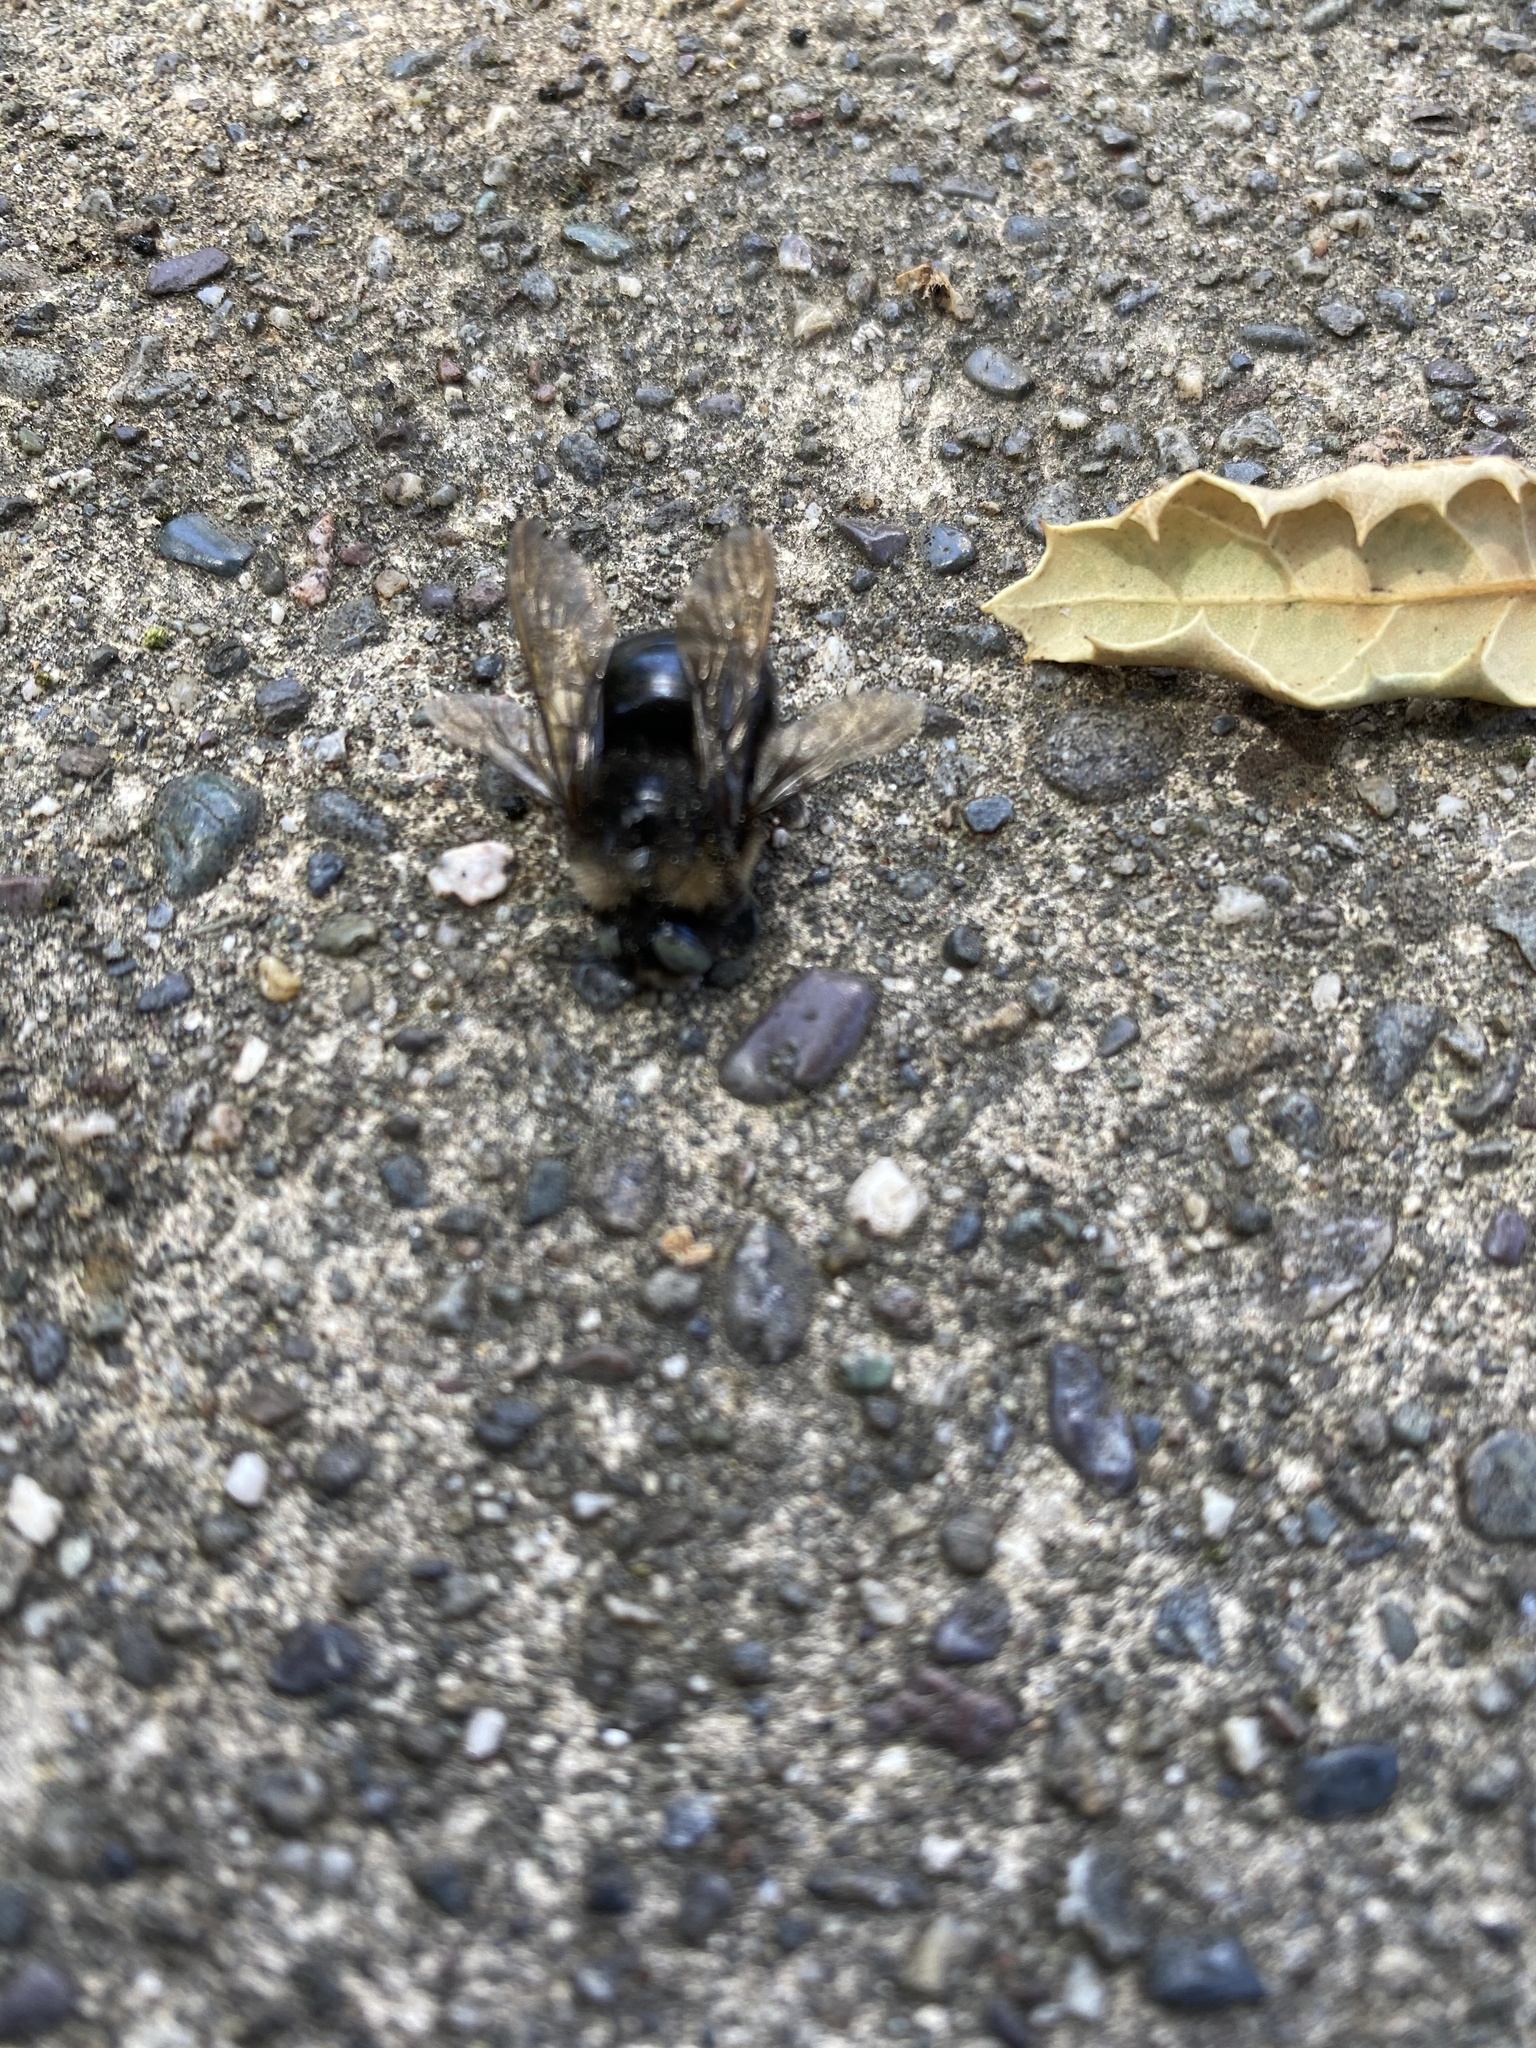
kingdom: Animalia
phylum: Arthropoda
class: Insecta
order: Hymenoptera
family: Apidae
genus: Xylocopa
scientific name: Xylocopa tabaniformis
